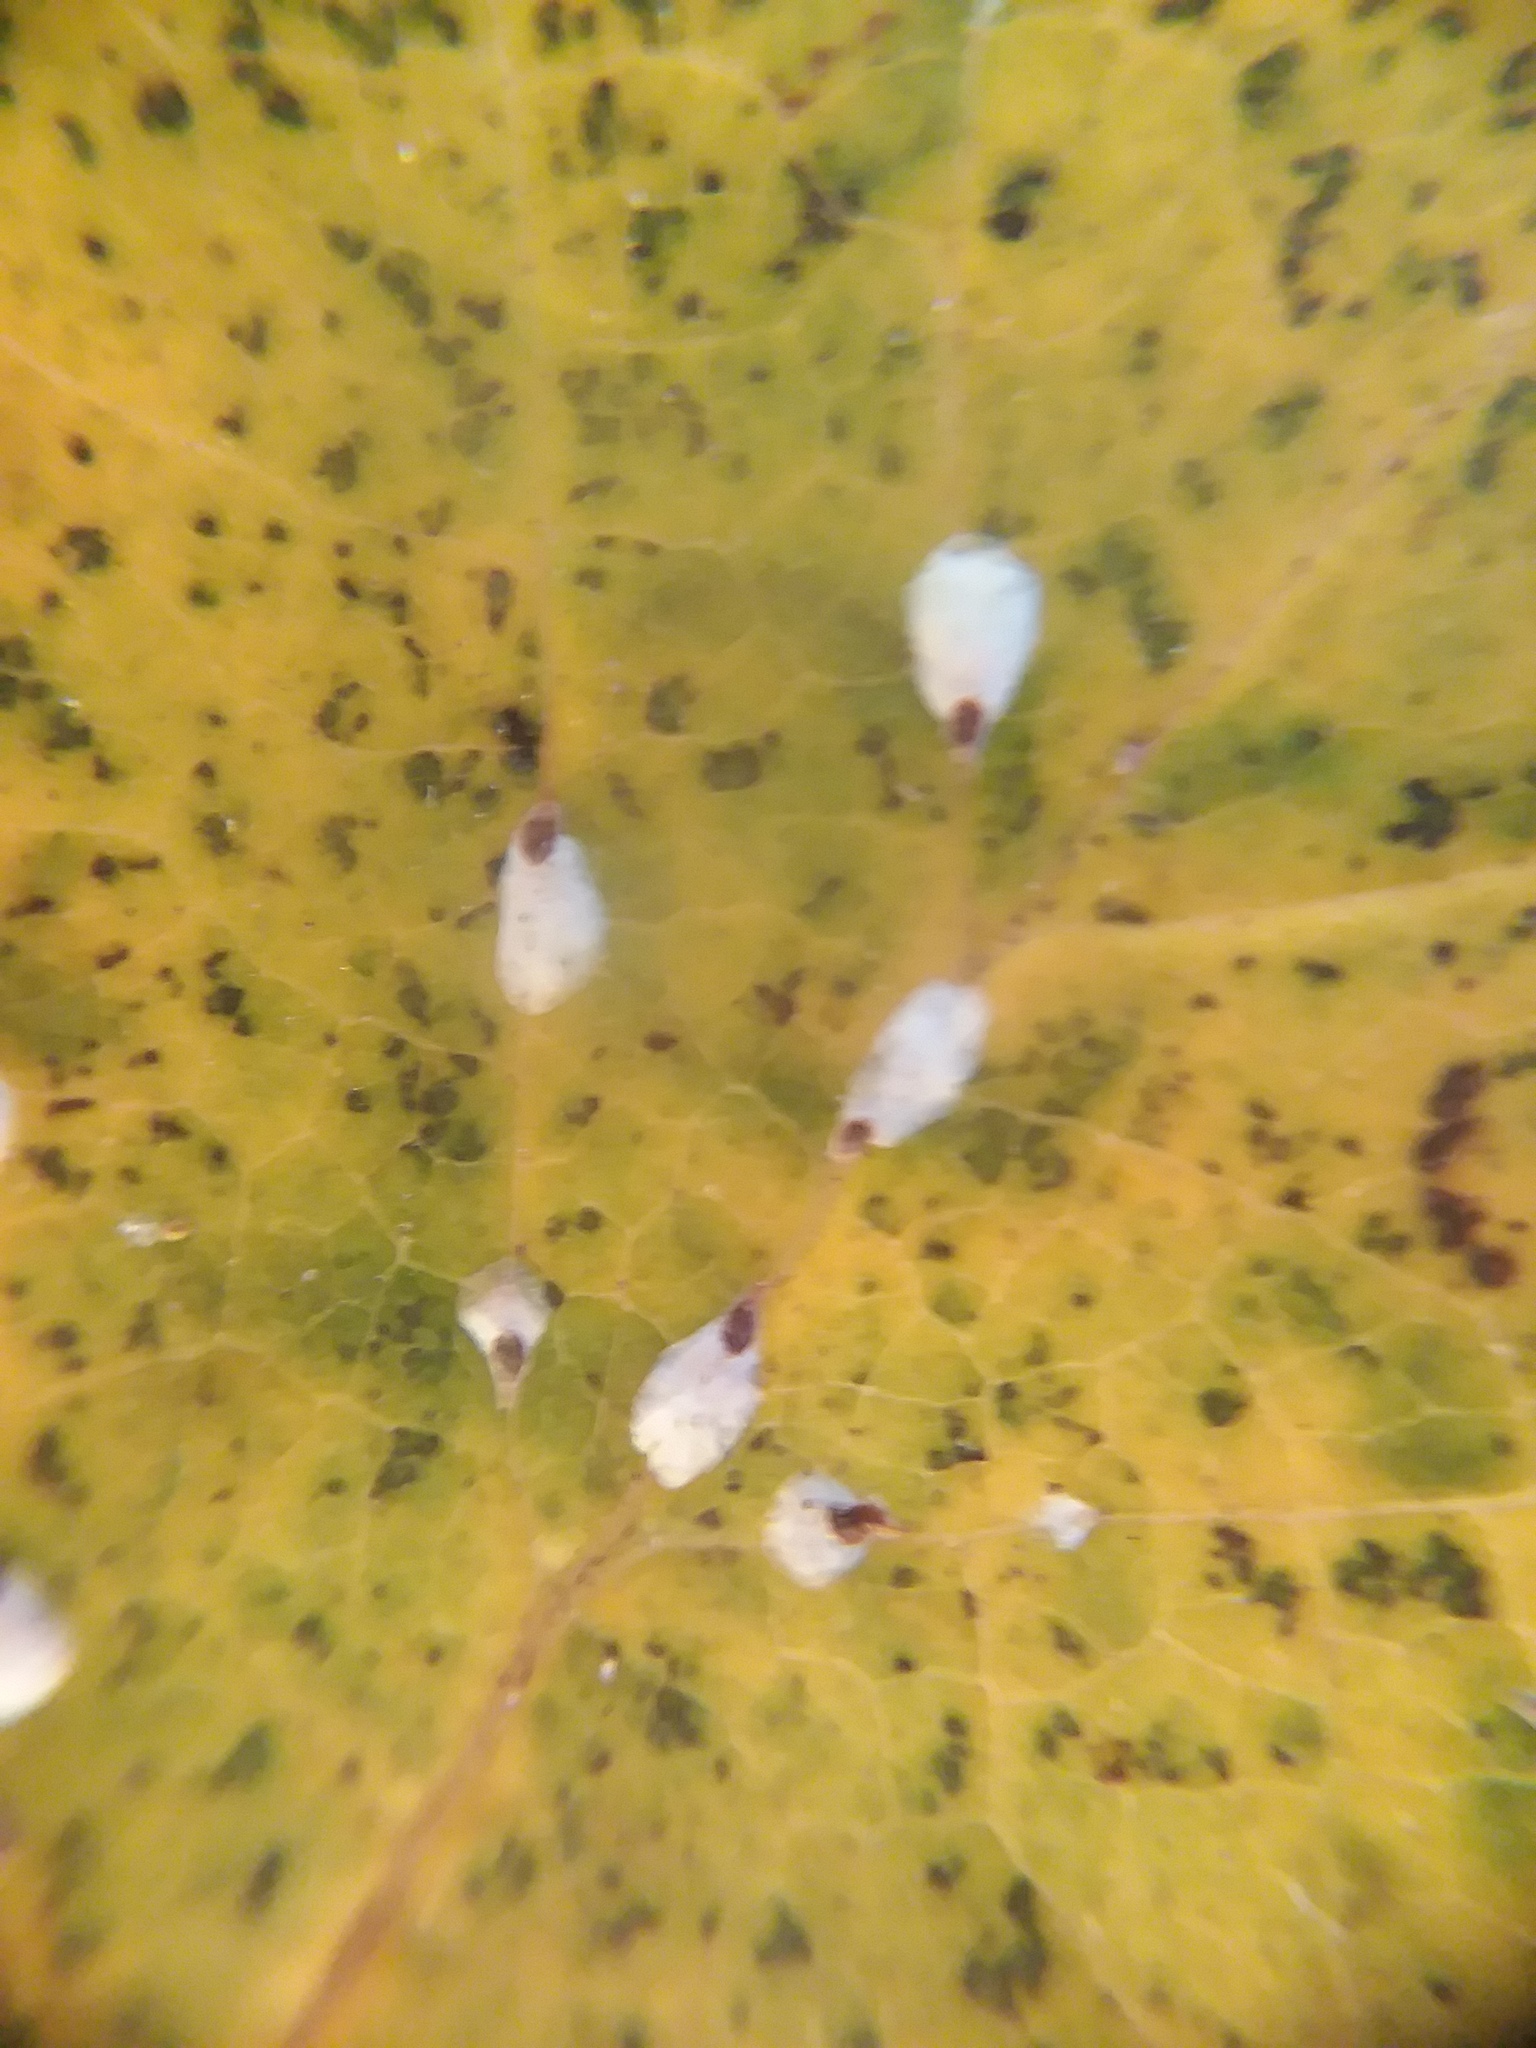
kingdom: Animalia
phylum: Arthropoda
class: Insecta
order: Hemiptera
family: Diaspididae
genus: Pseudaulacaspis
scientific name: Pseudaulacaspis cockerelli
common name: False oleander scale
